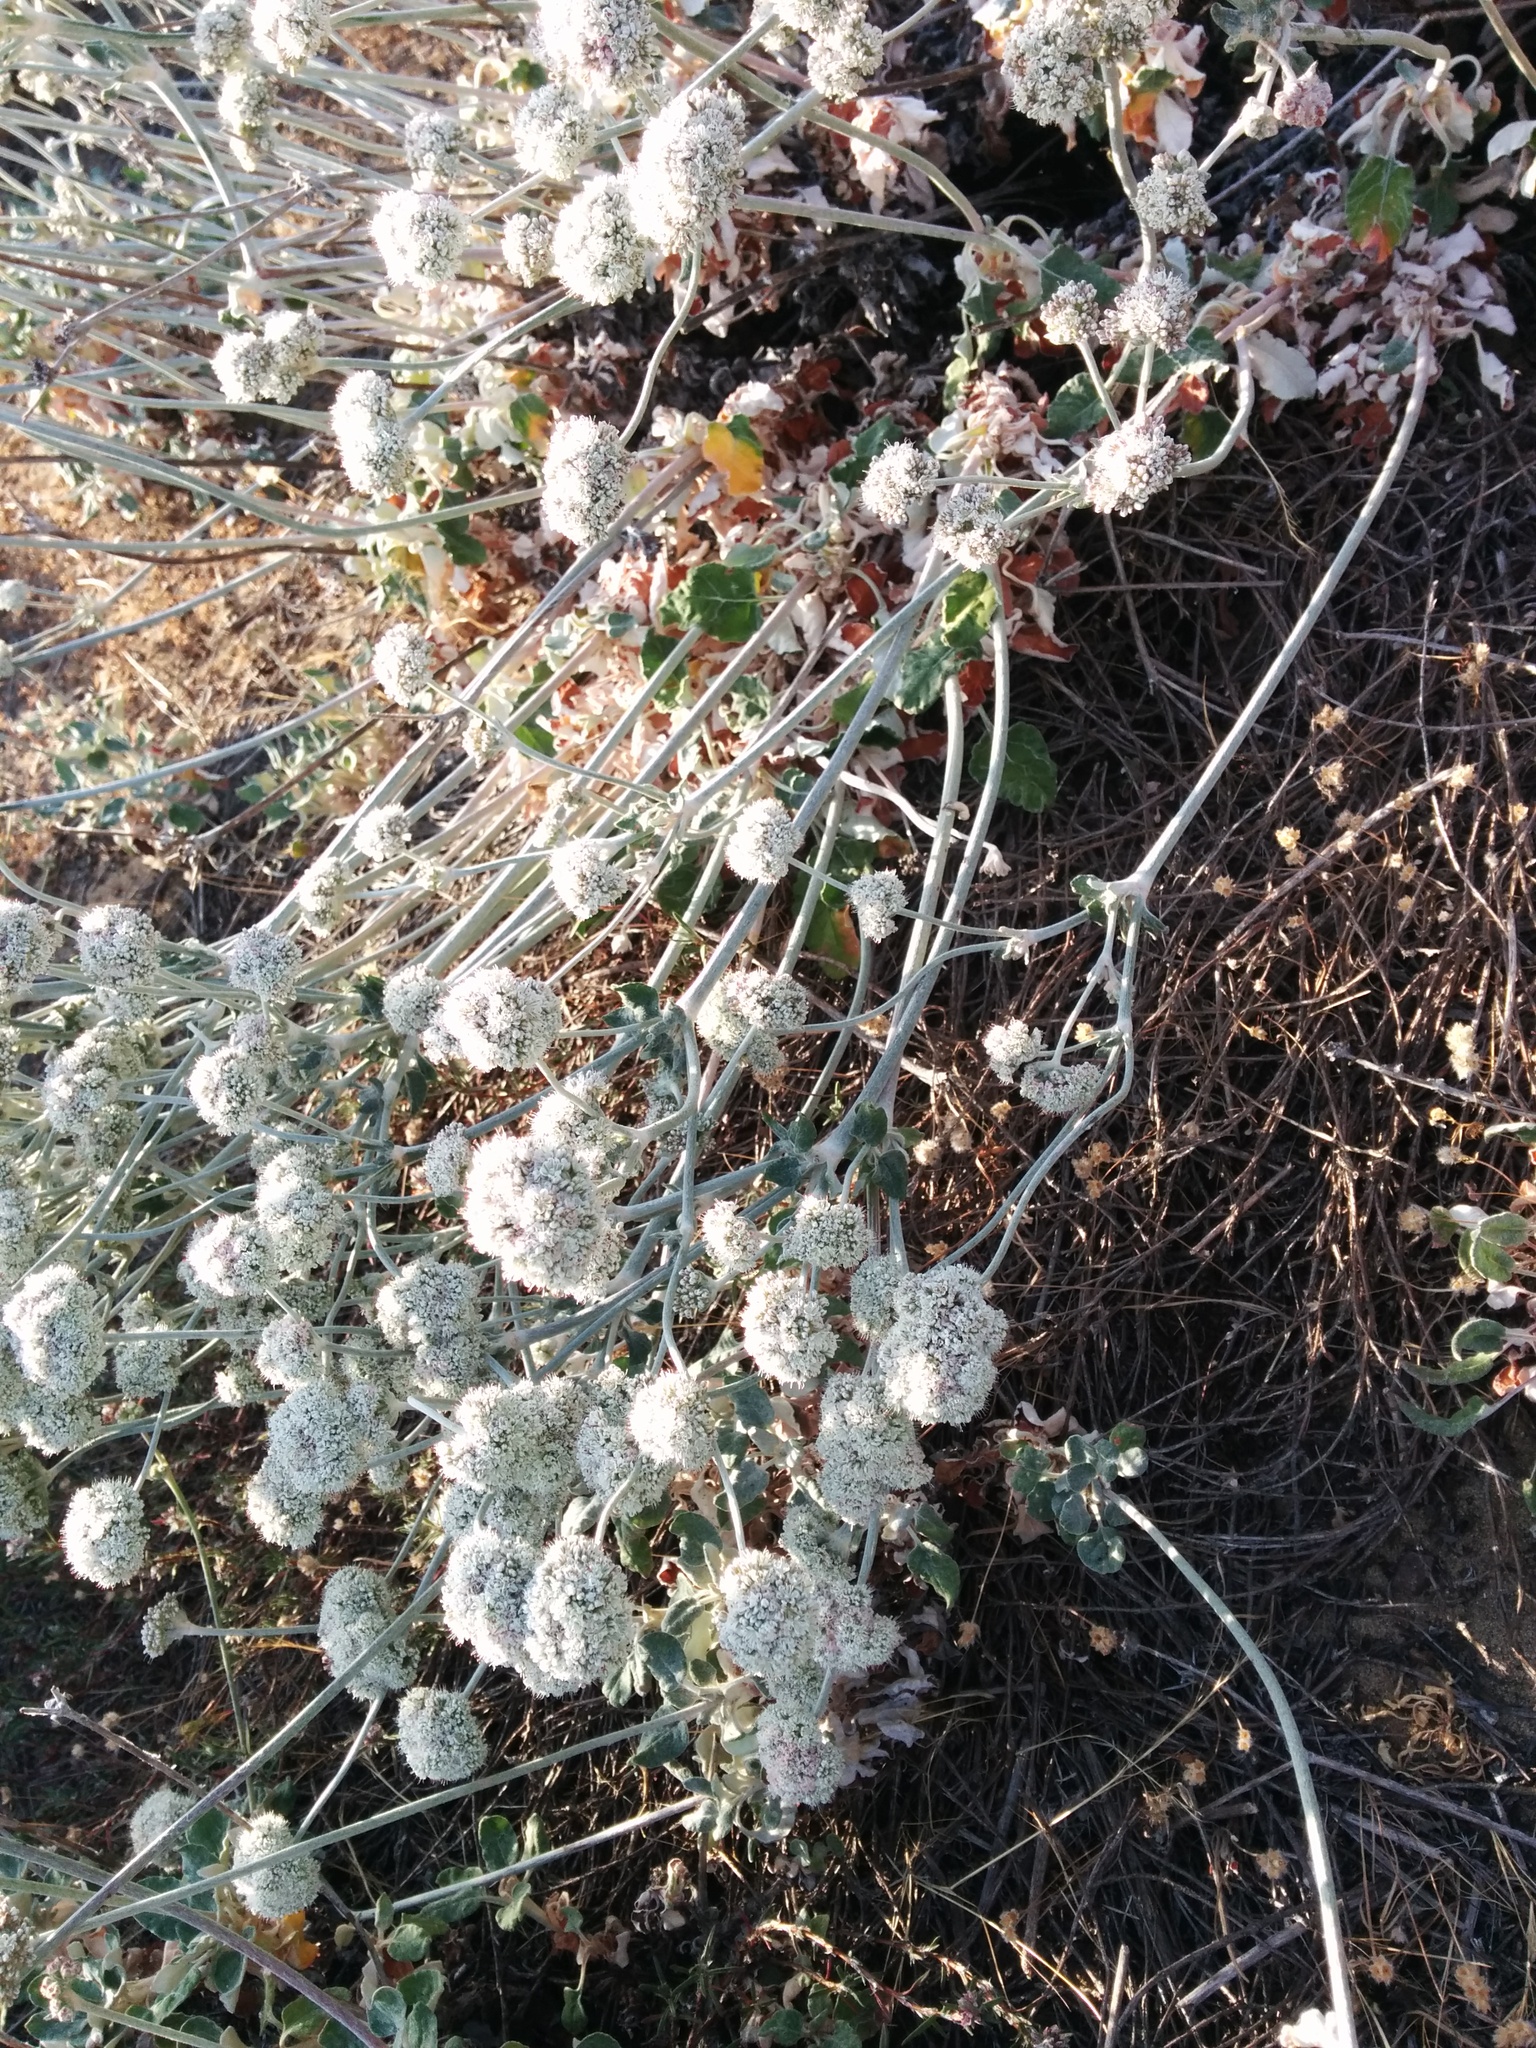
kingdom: Plantae
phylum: Tracheophyta
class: Magnoliopsida
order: Caryophyllales
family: Polygonaceae
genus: Eriogonum
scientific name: Eriogonum latifolium
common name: Seaside wild buckwheat
